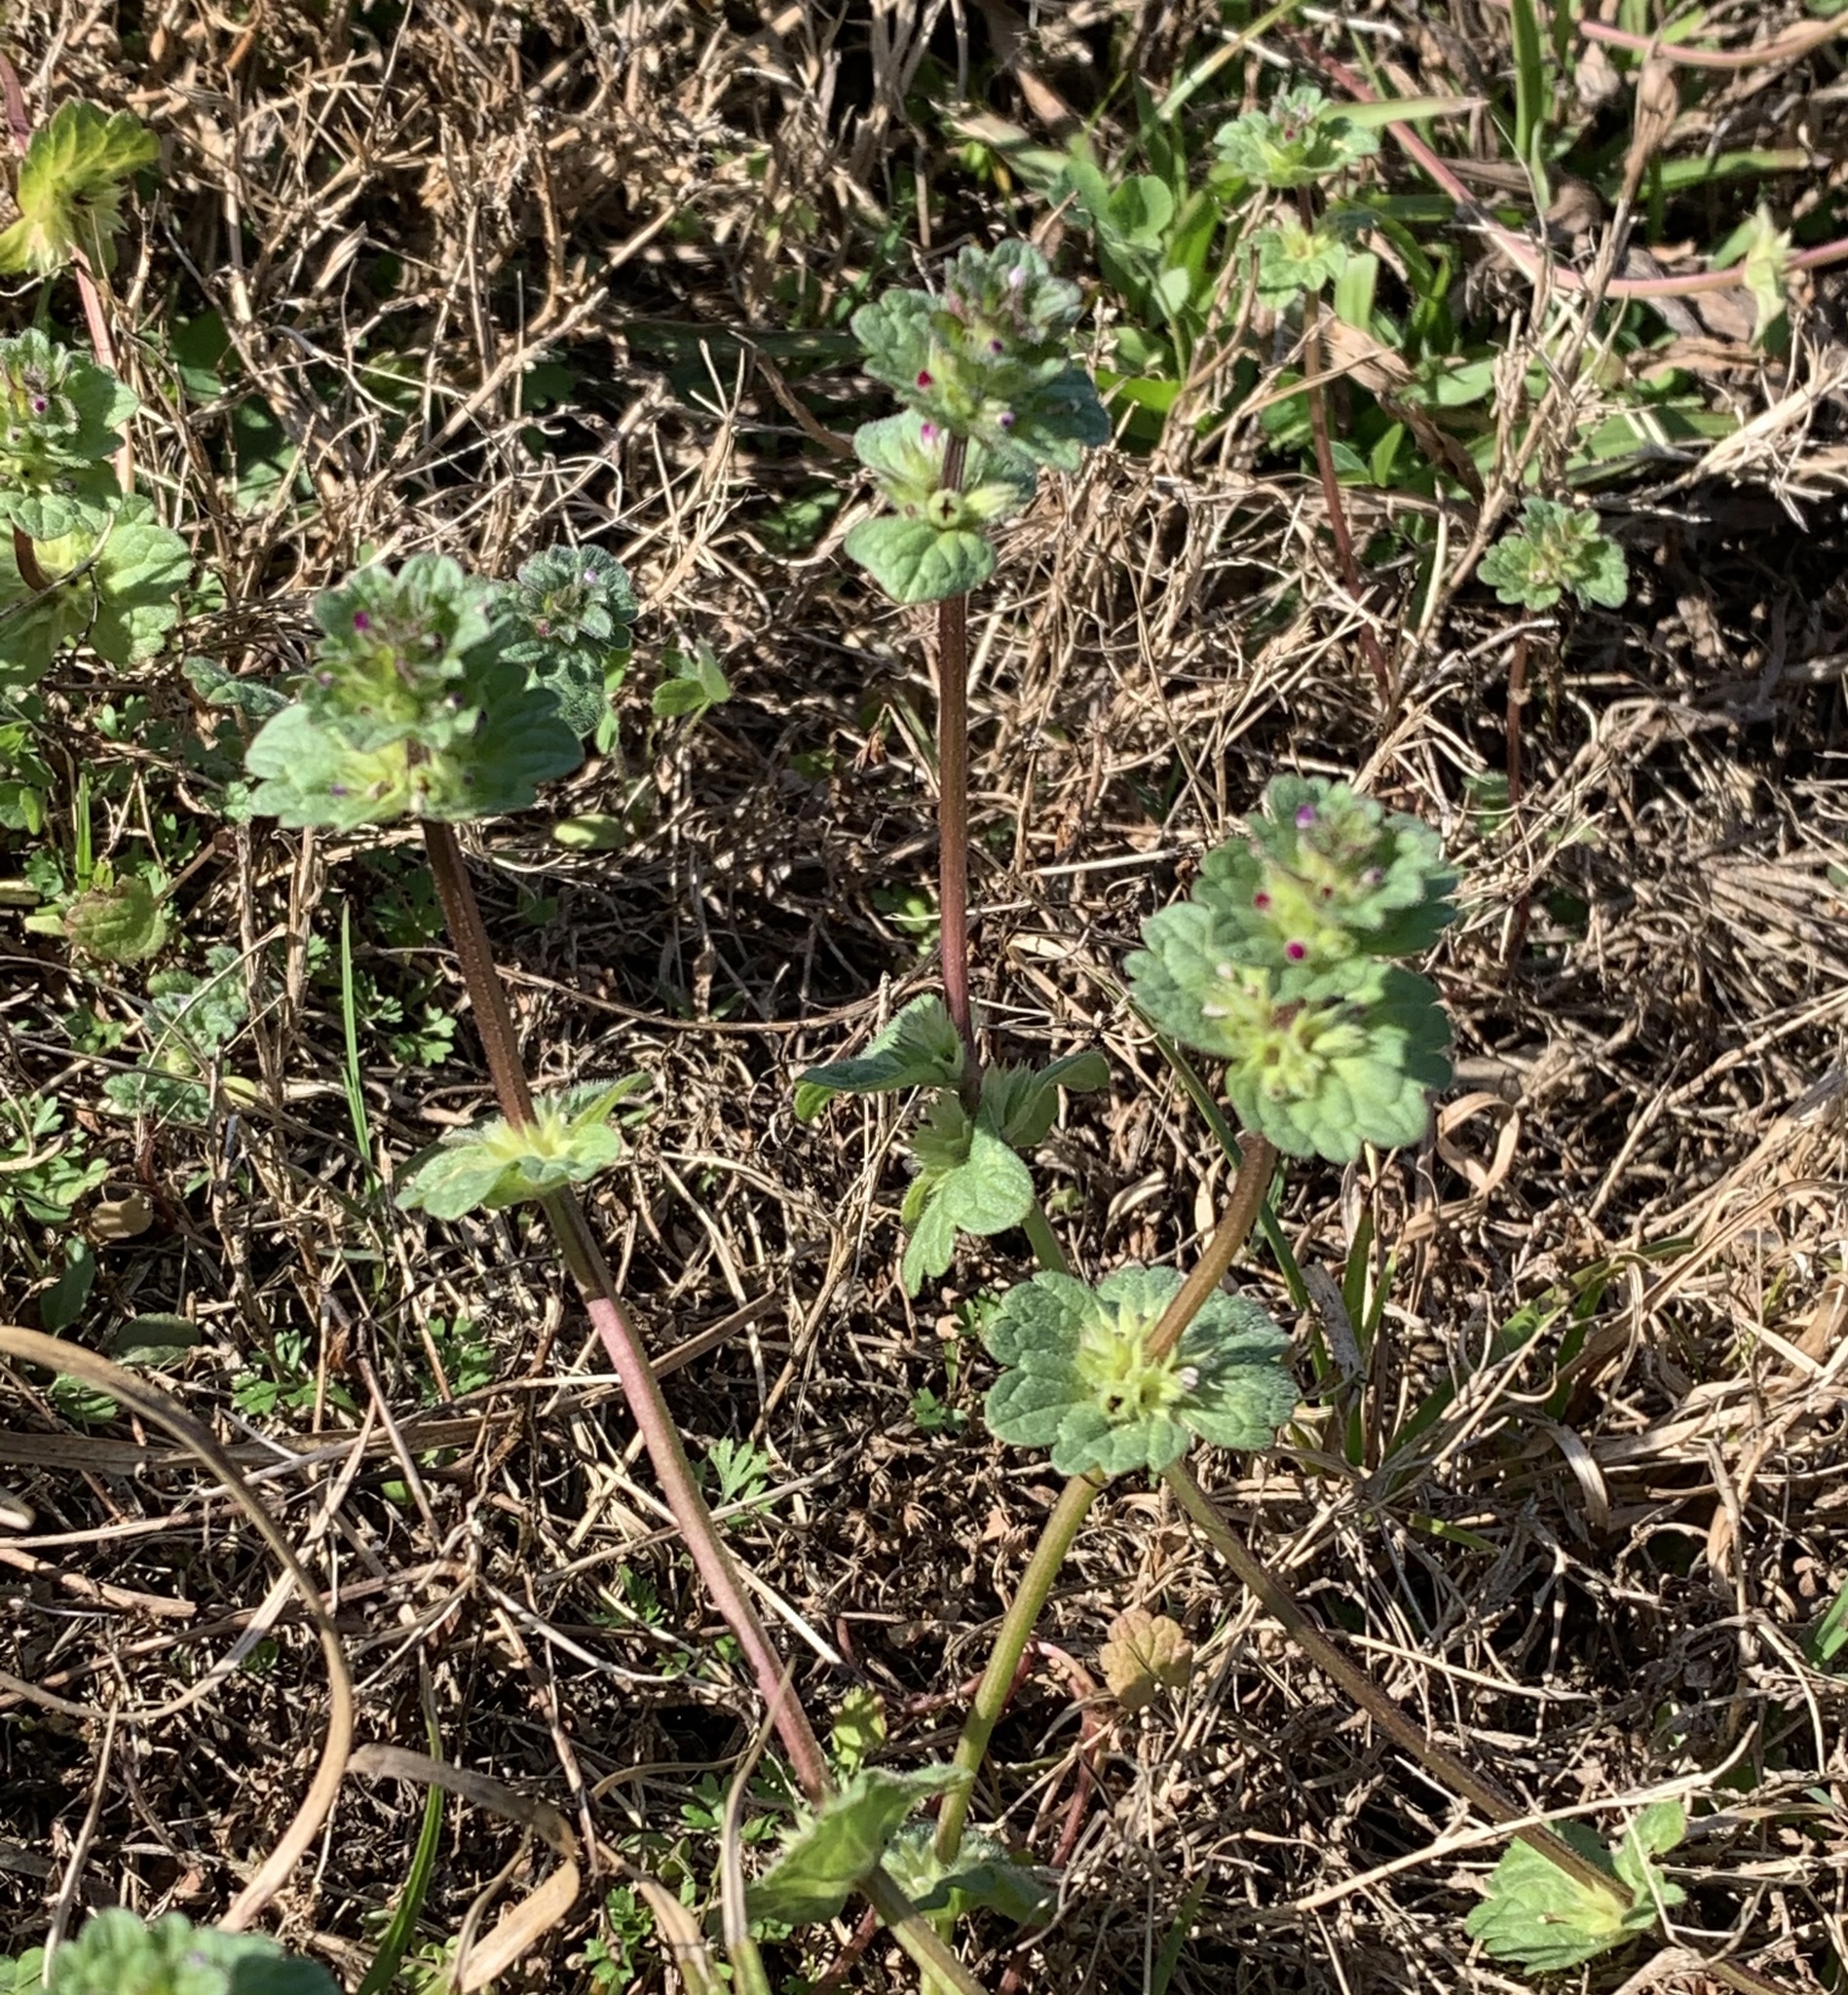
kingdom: Plantae
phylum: Tracheophyta
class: Magnoliopsida
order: Lamiales
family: Lamiaceae
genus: Lamium
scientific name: Lamium amplexicaule
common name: Henbit dead-nettle
